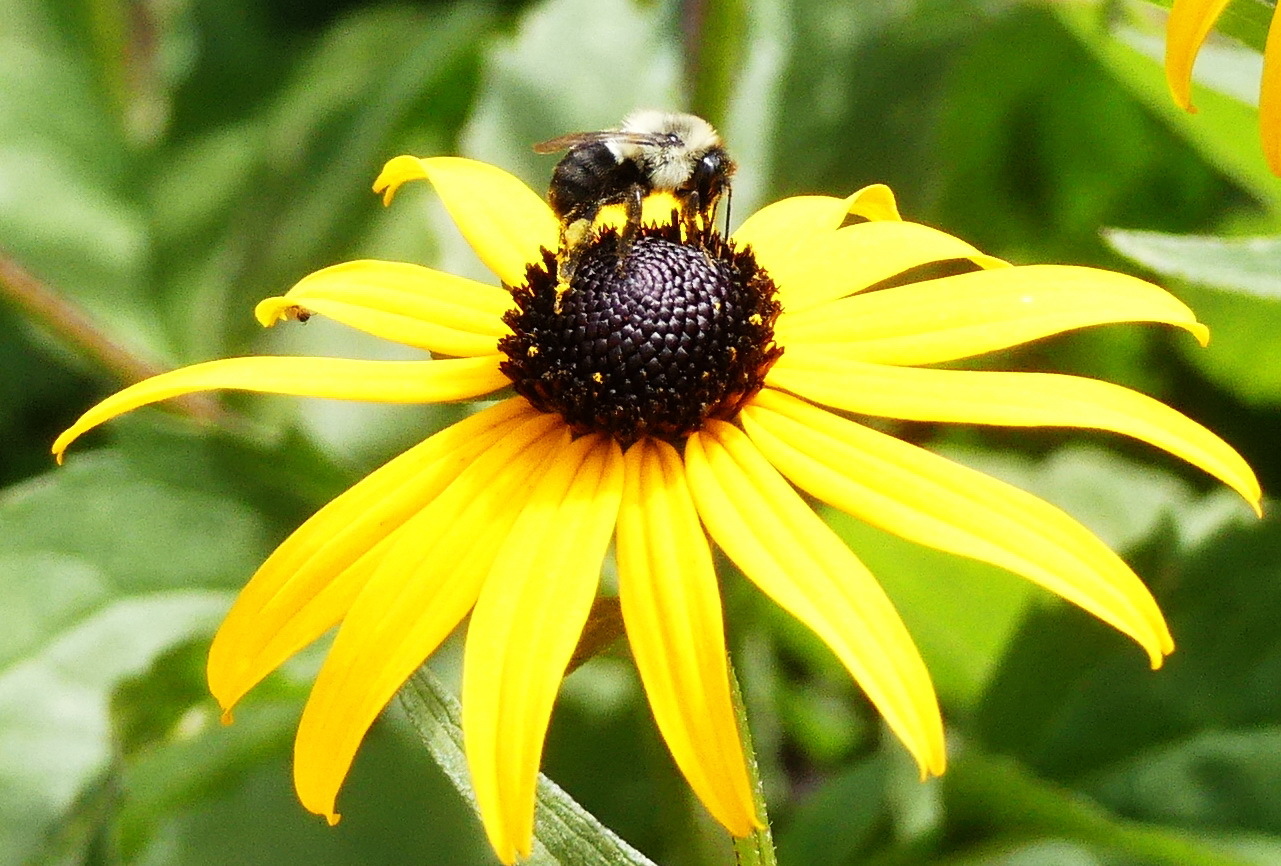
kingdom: Animalia
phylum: Arthropoda
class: Insecta
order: Hymenoptera
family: Apidae
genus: Bombus
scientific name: Bombus impatiens
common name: Common eastern bumble bee
